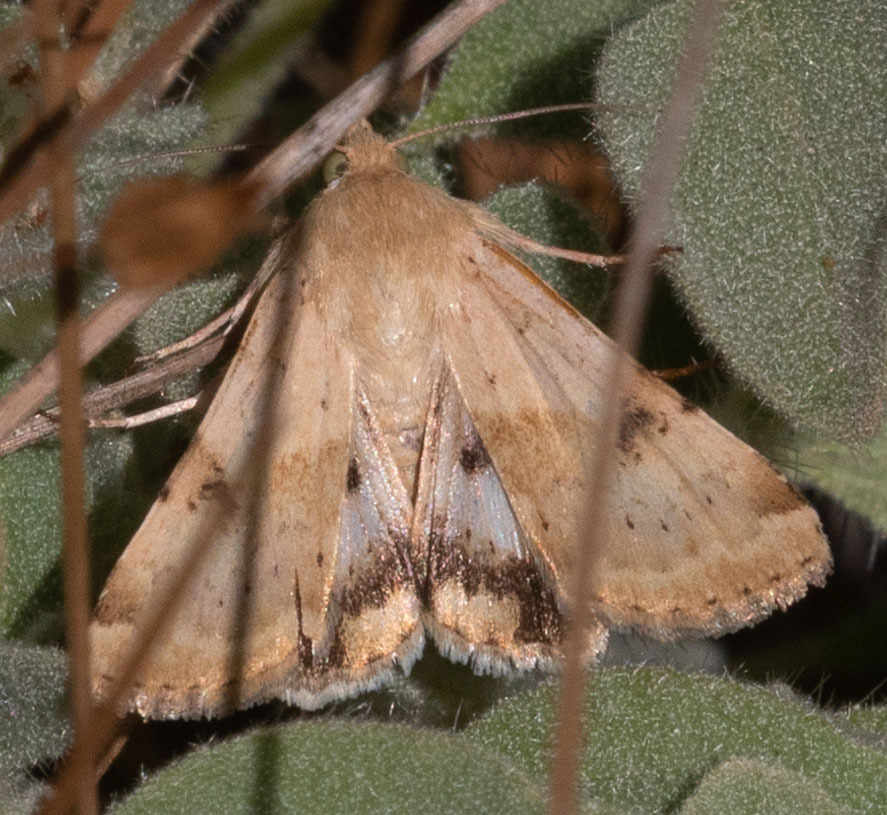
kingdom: Animalia
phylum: Arthropoda
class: Insecta
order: Lepidoptera
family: Noctuidae
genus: Heliothis
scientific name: Heliothis phloxiphaga
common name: Darker spotted straw moth
